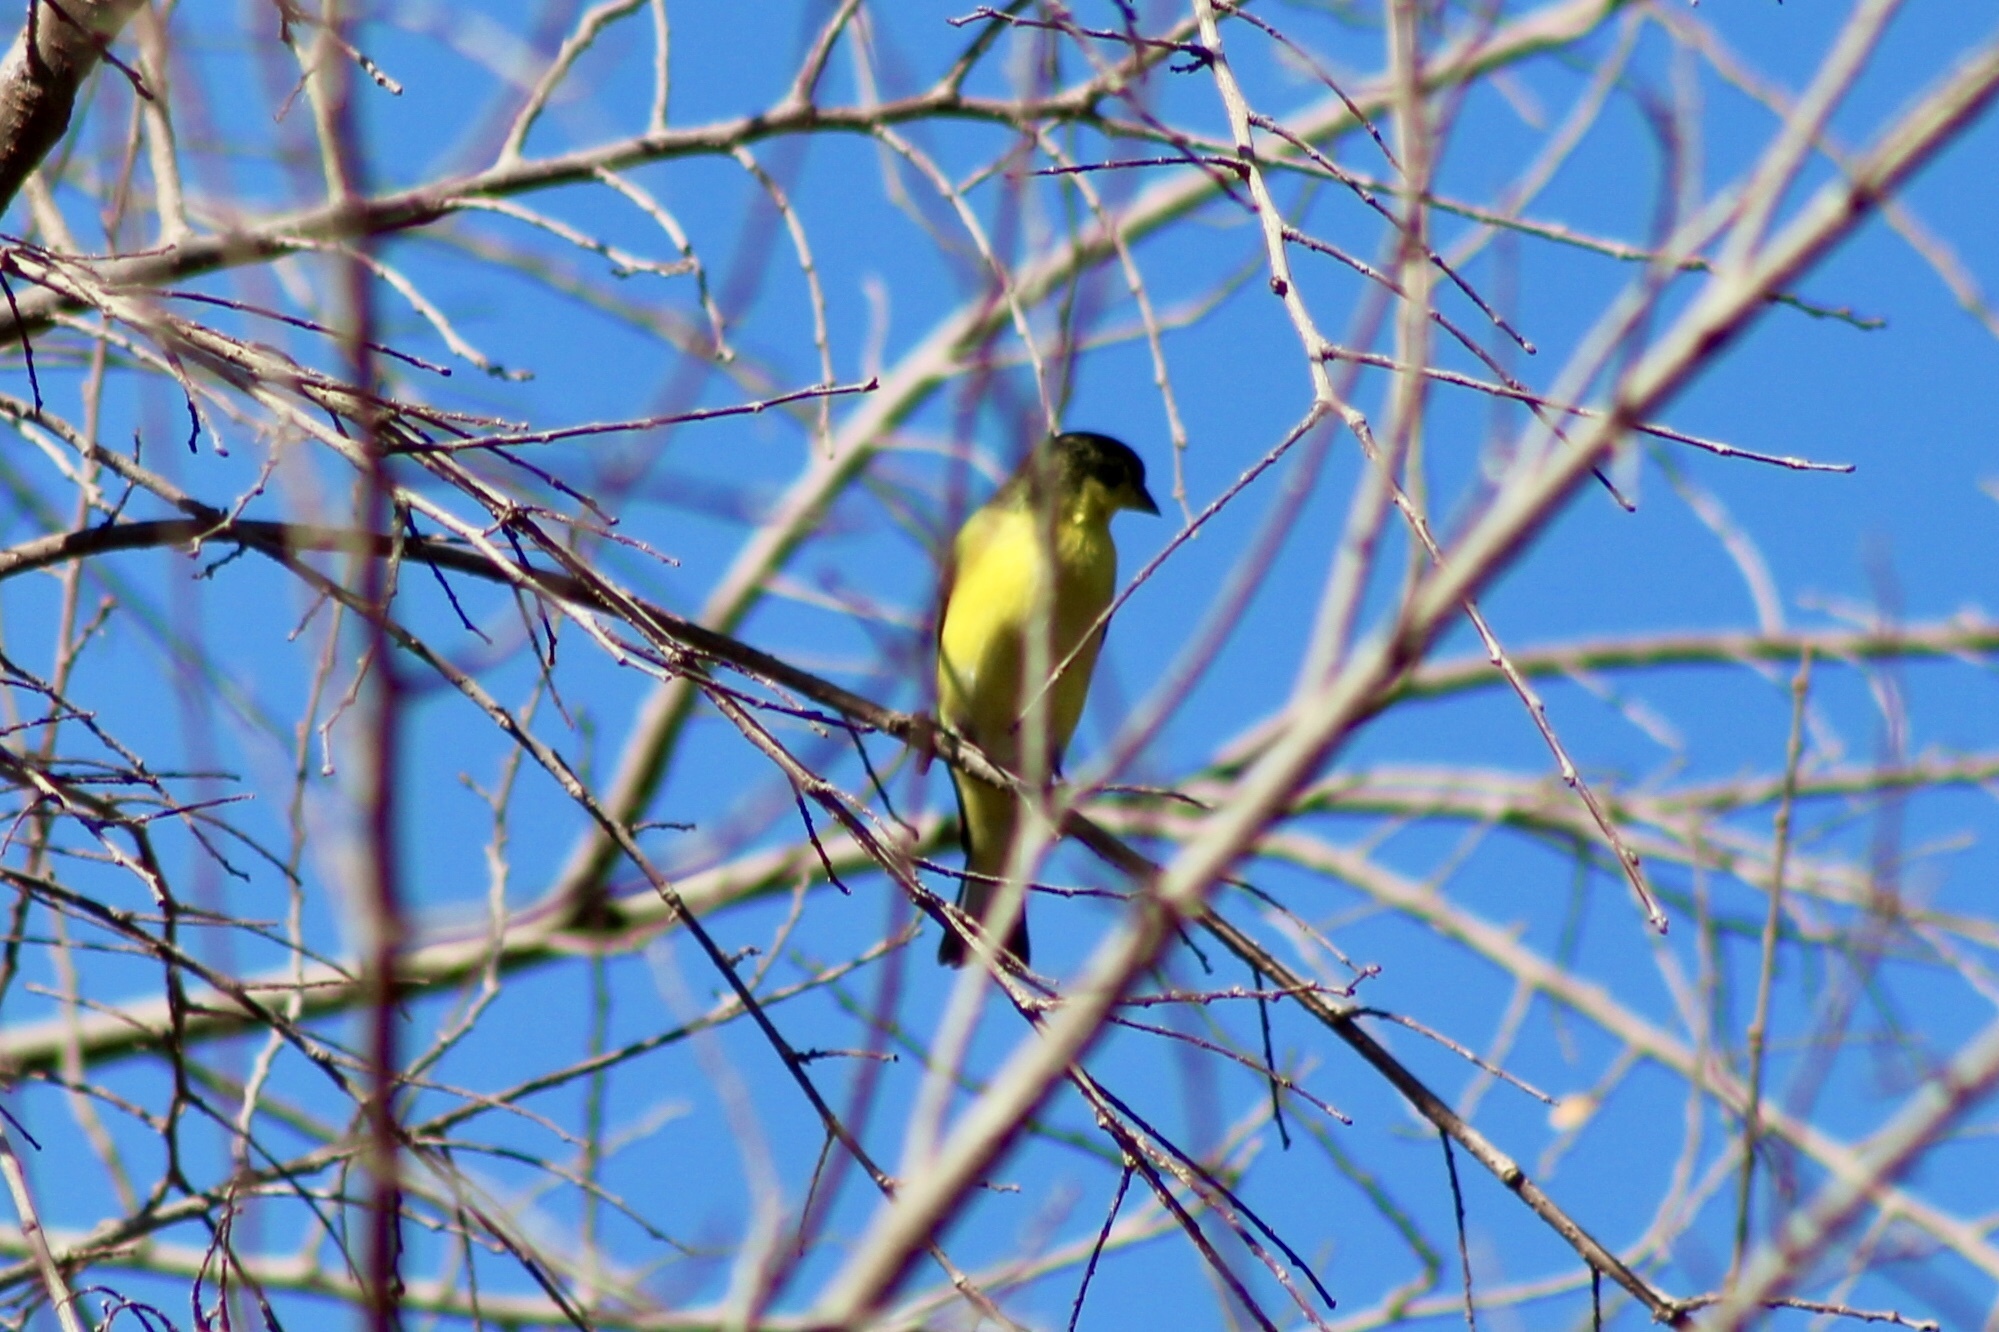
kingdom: Animalia
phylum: Chordata
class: Aves
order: Passeriformes
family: Fringillidae
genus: Spinus
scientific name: Spinus psaltria
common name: Lesser goldfinch
